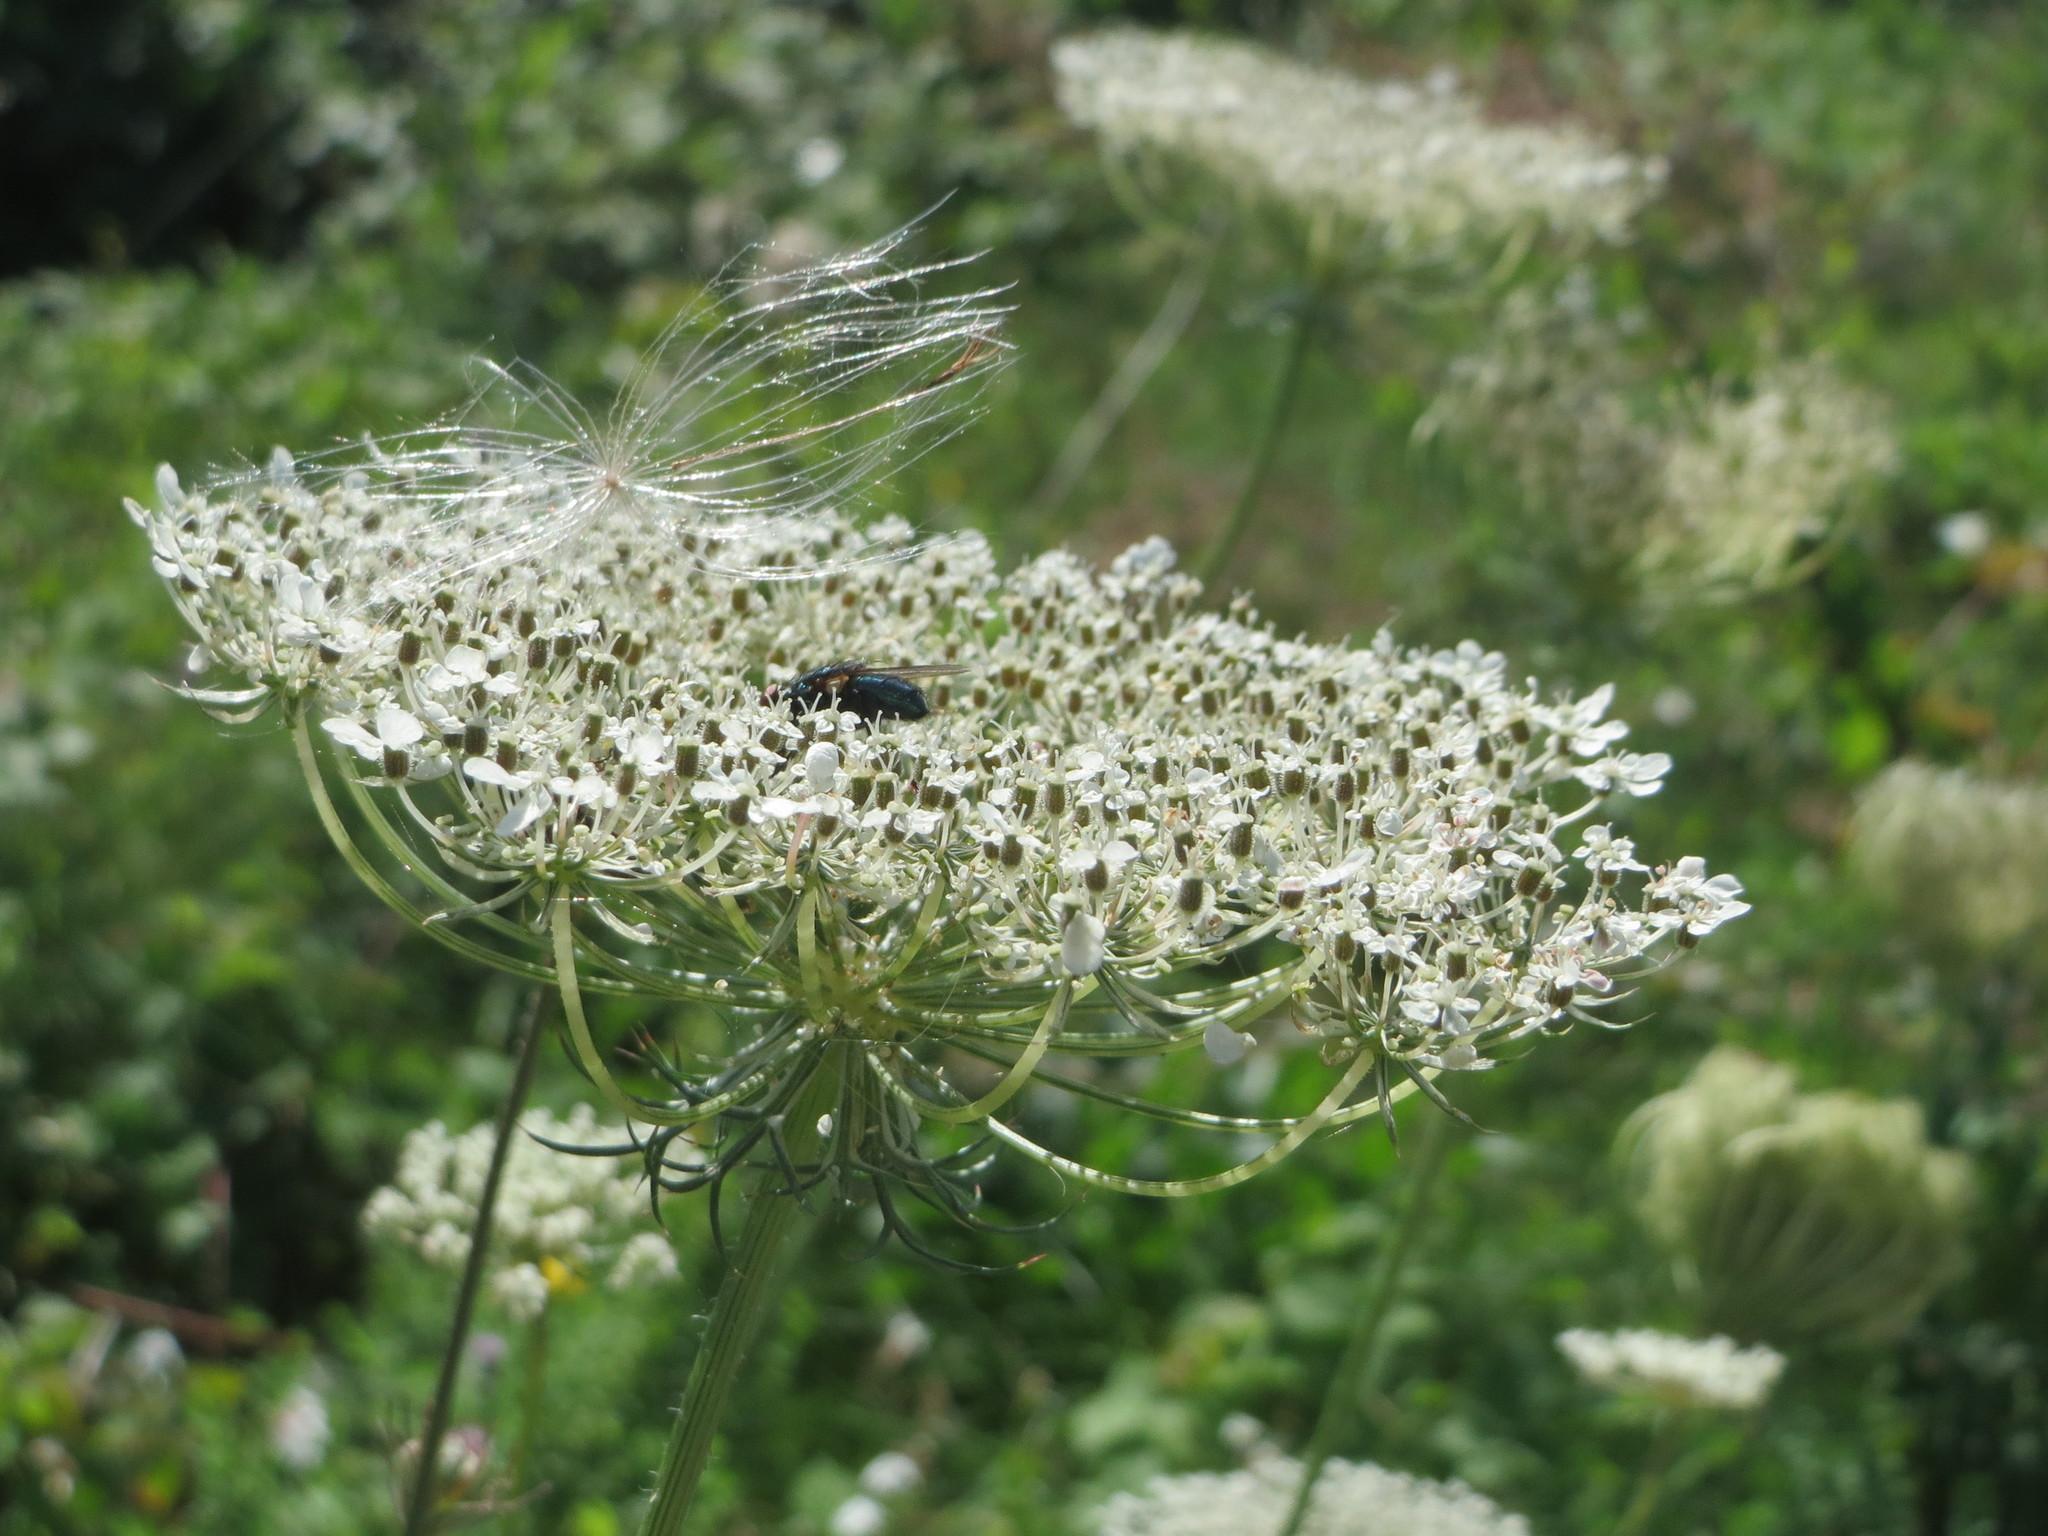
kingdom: Plantae
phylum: Tracheophyta
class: Magnoliopsida
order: Apiales
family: Apiaceae
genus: Daucus
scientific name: Daucus carota
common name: Wild carrot
